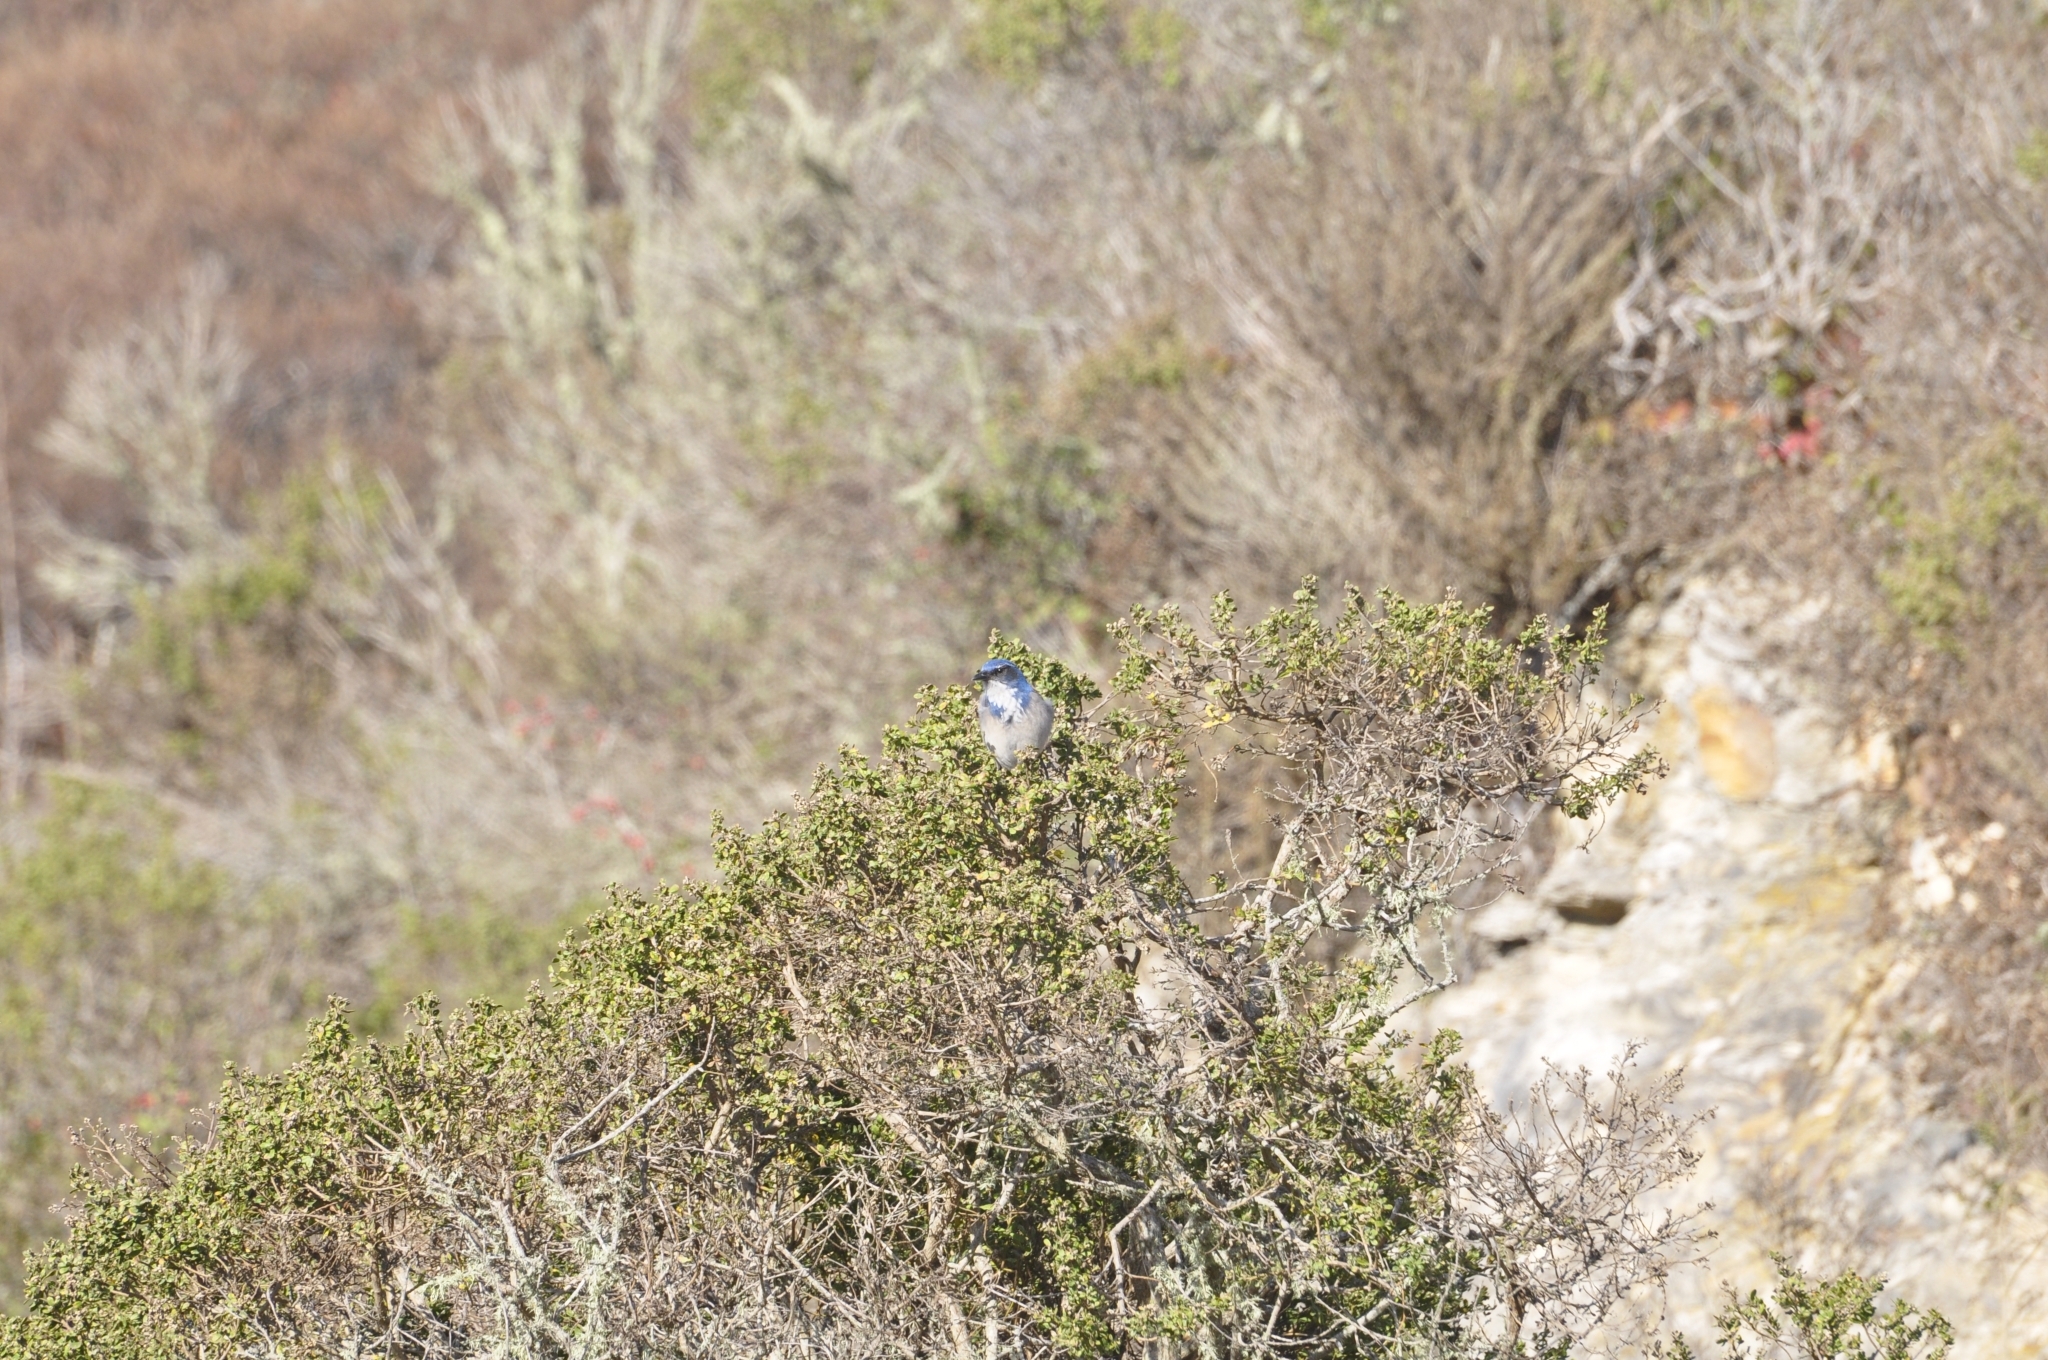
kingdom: Animalia
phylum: Chordata
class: Aves
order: Passeriformes
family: Corvidae
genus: Aphelocoma
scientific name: Aphelocoma californica
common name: California scrub-jay
